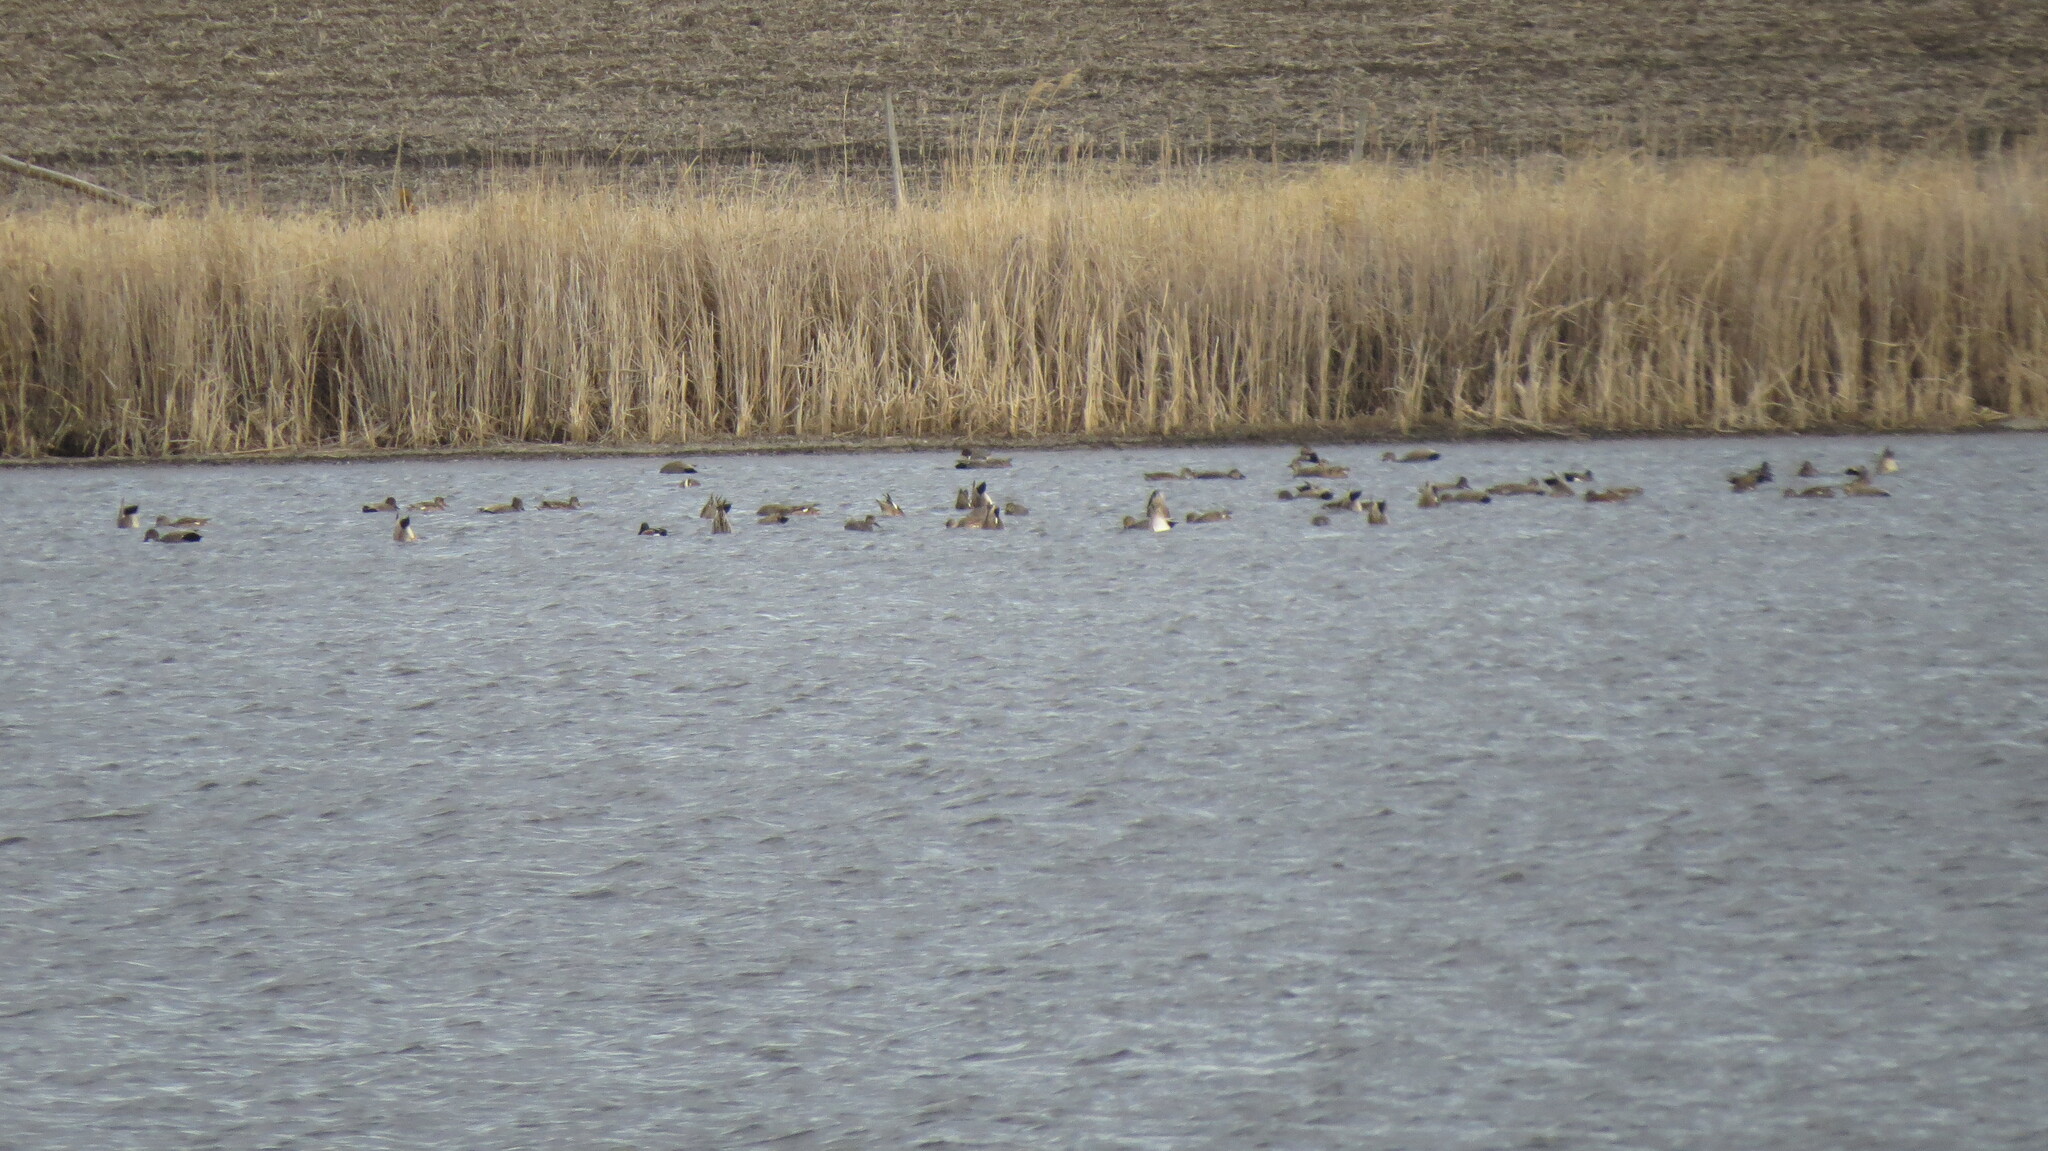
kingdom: Animalia
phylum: Chordata
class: Aves
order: Anseriformes
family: Anatidae
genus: Mareca
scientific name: Mareca strepera
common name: Gadwall
